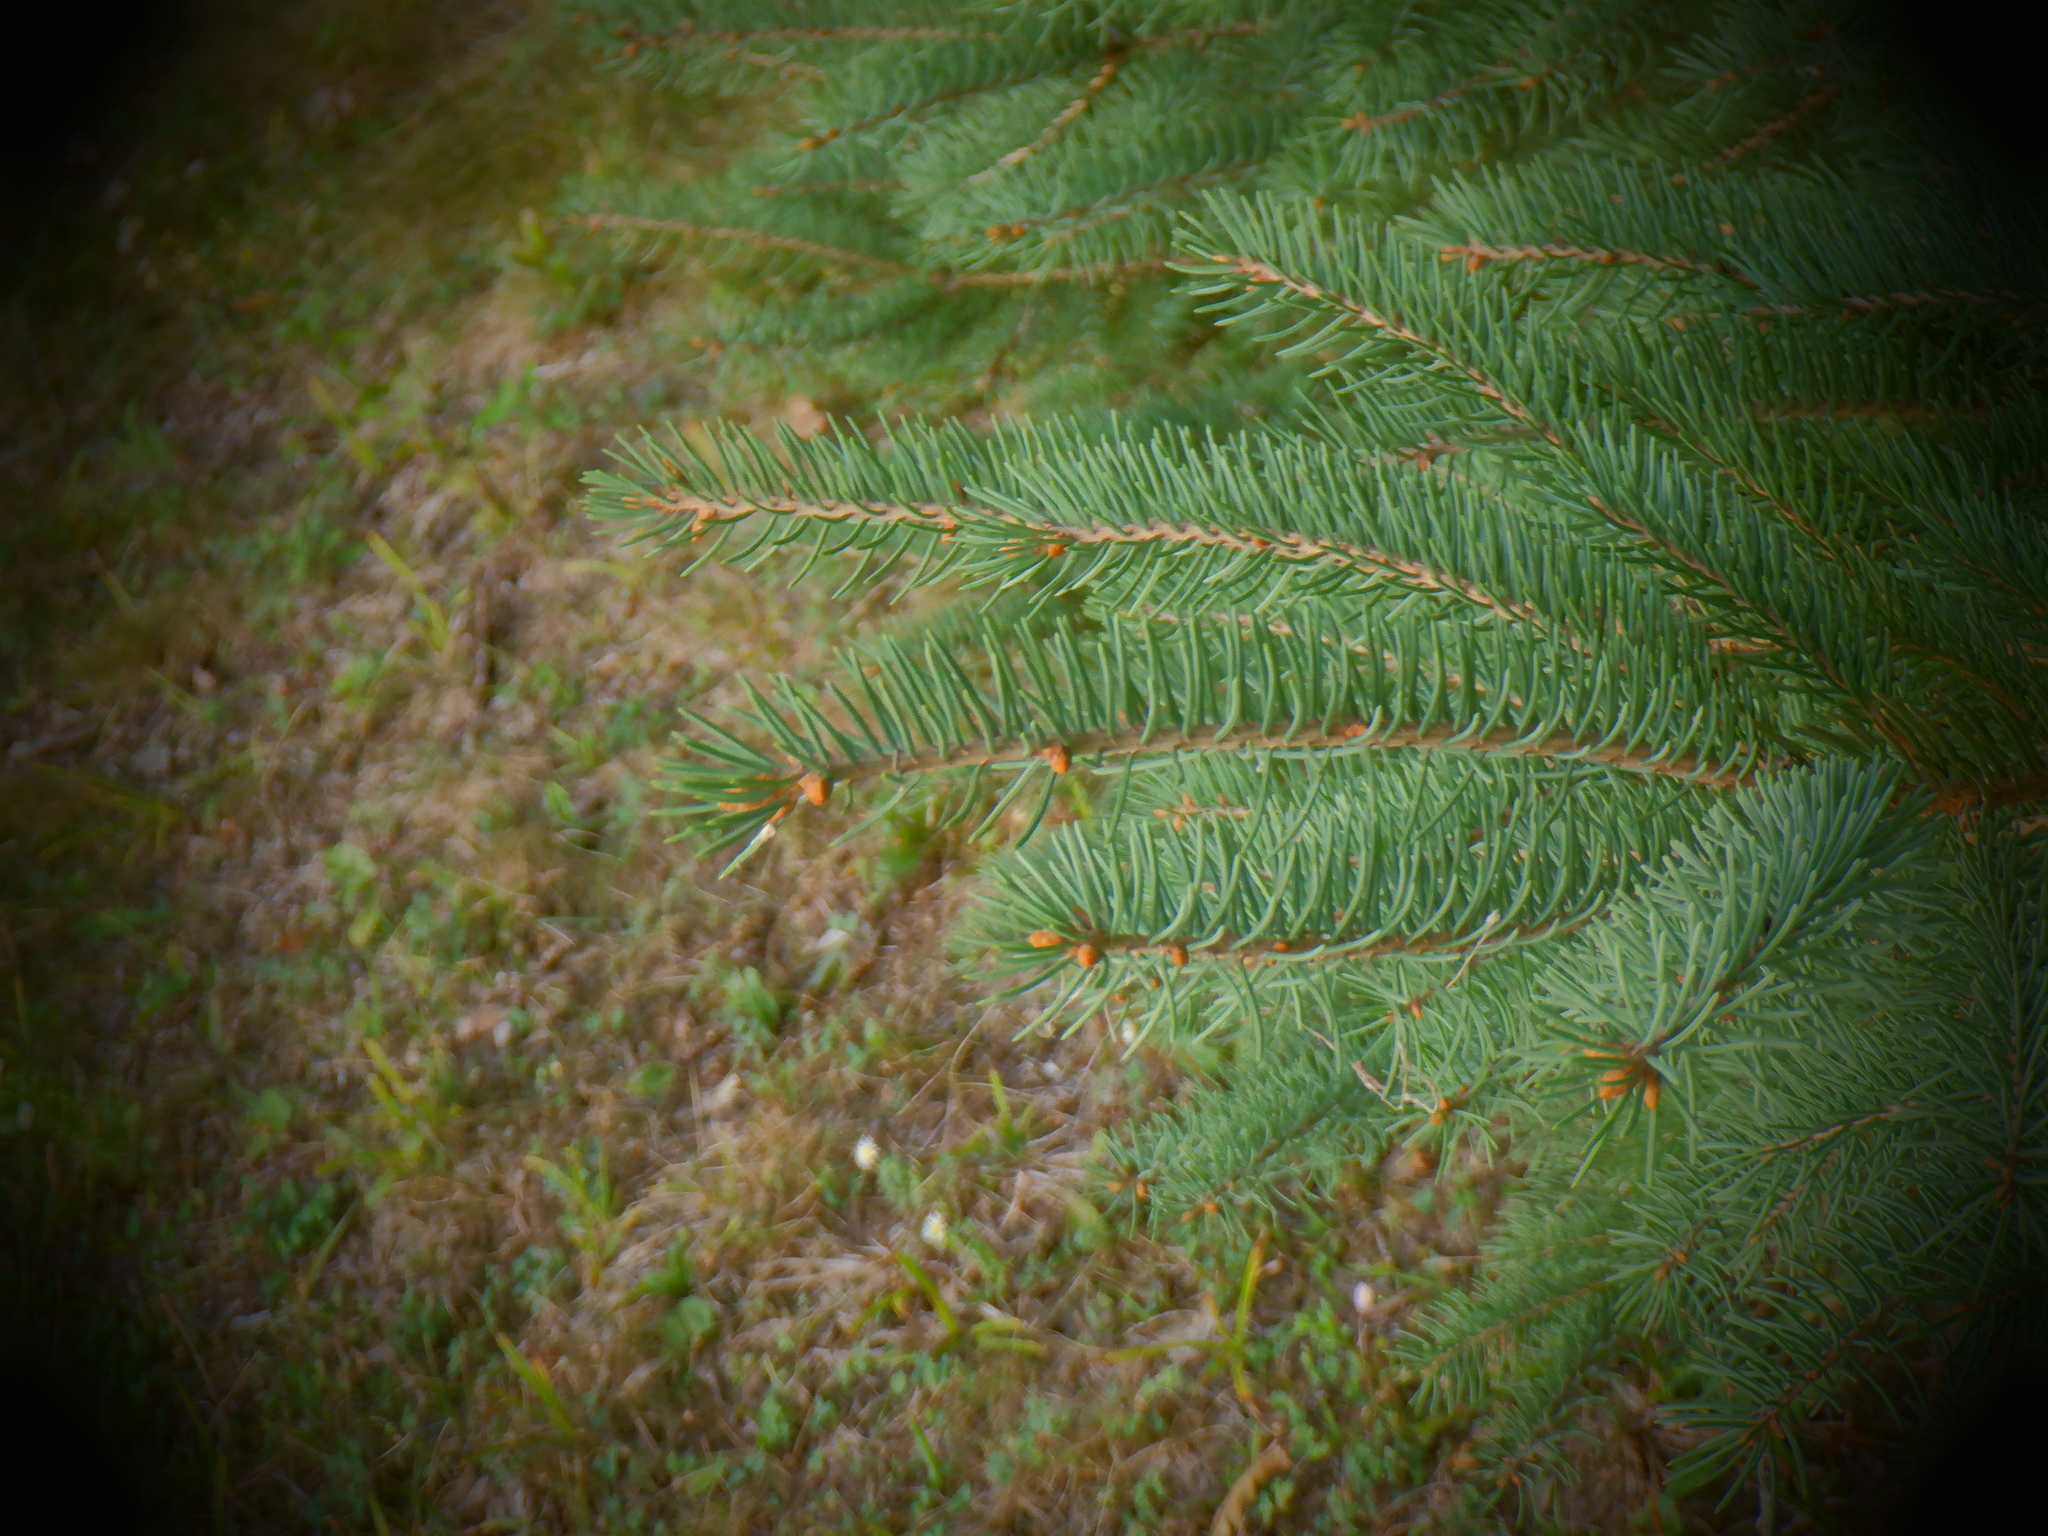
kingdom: Plantae
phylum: Tracheophyta
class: Pinopsida
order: Pinales
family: Pinaceae
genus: Picea
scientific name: Picea glauca
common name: White spruce
